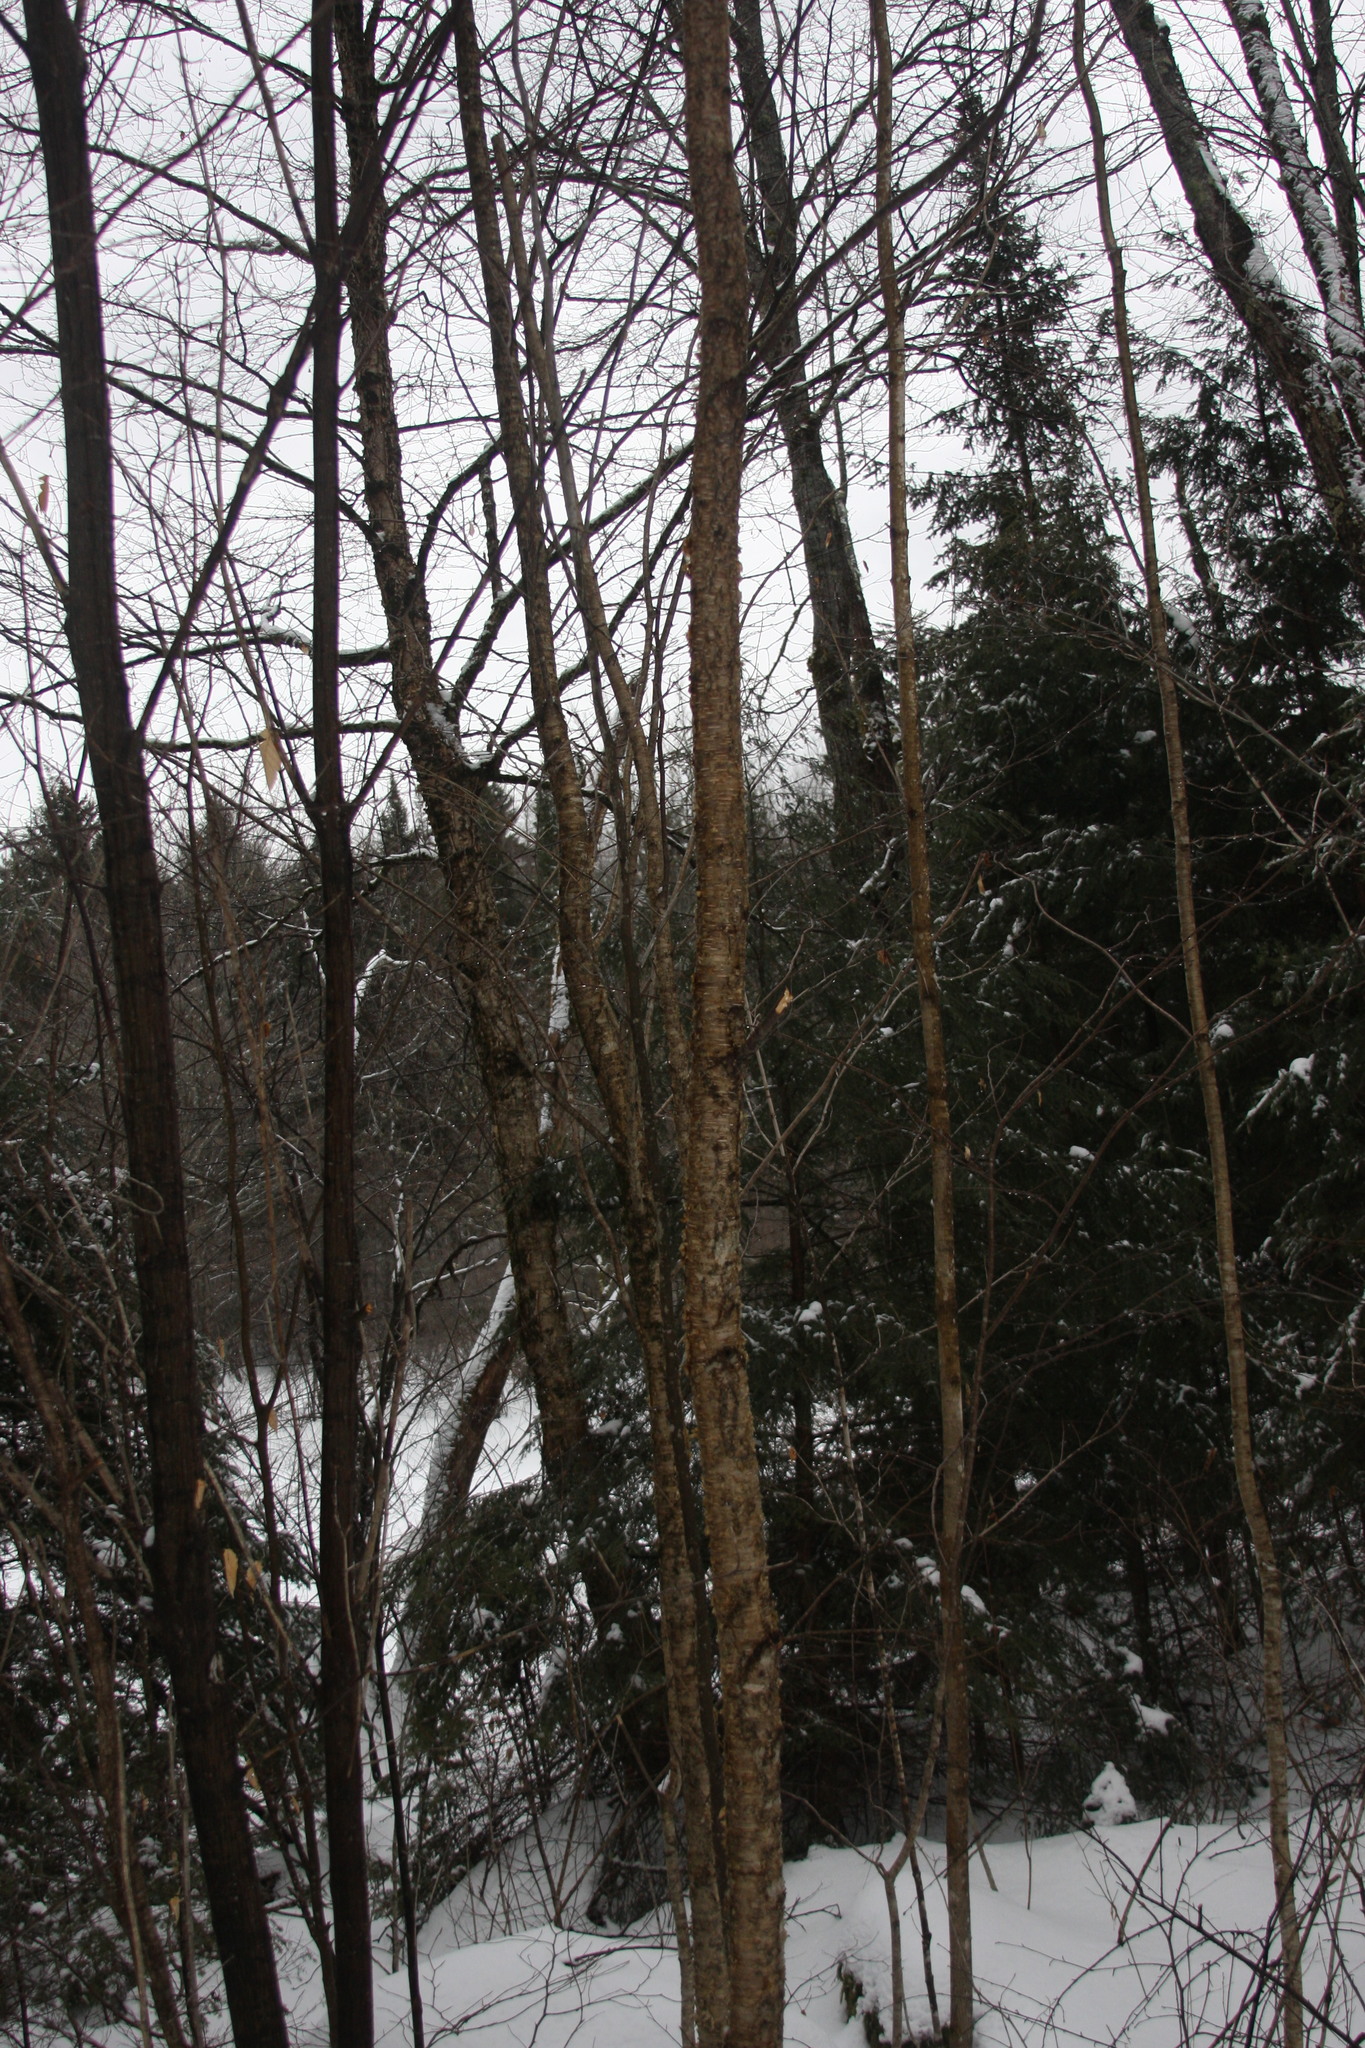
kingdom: Plantae
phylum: Tracheophyta
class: Magnoliopsida
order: Fagales
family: Betulaceae
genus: Betula
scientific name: Betula alleghaniensis
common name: Yellow birch
